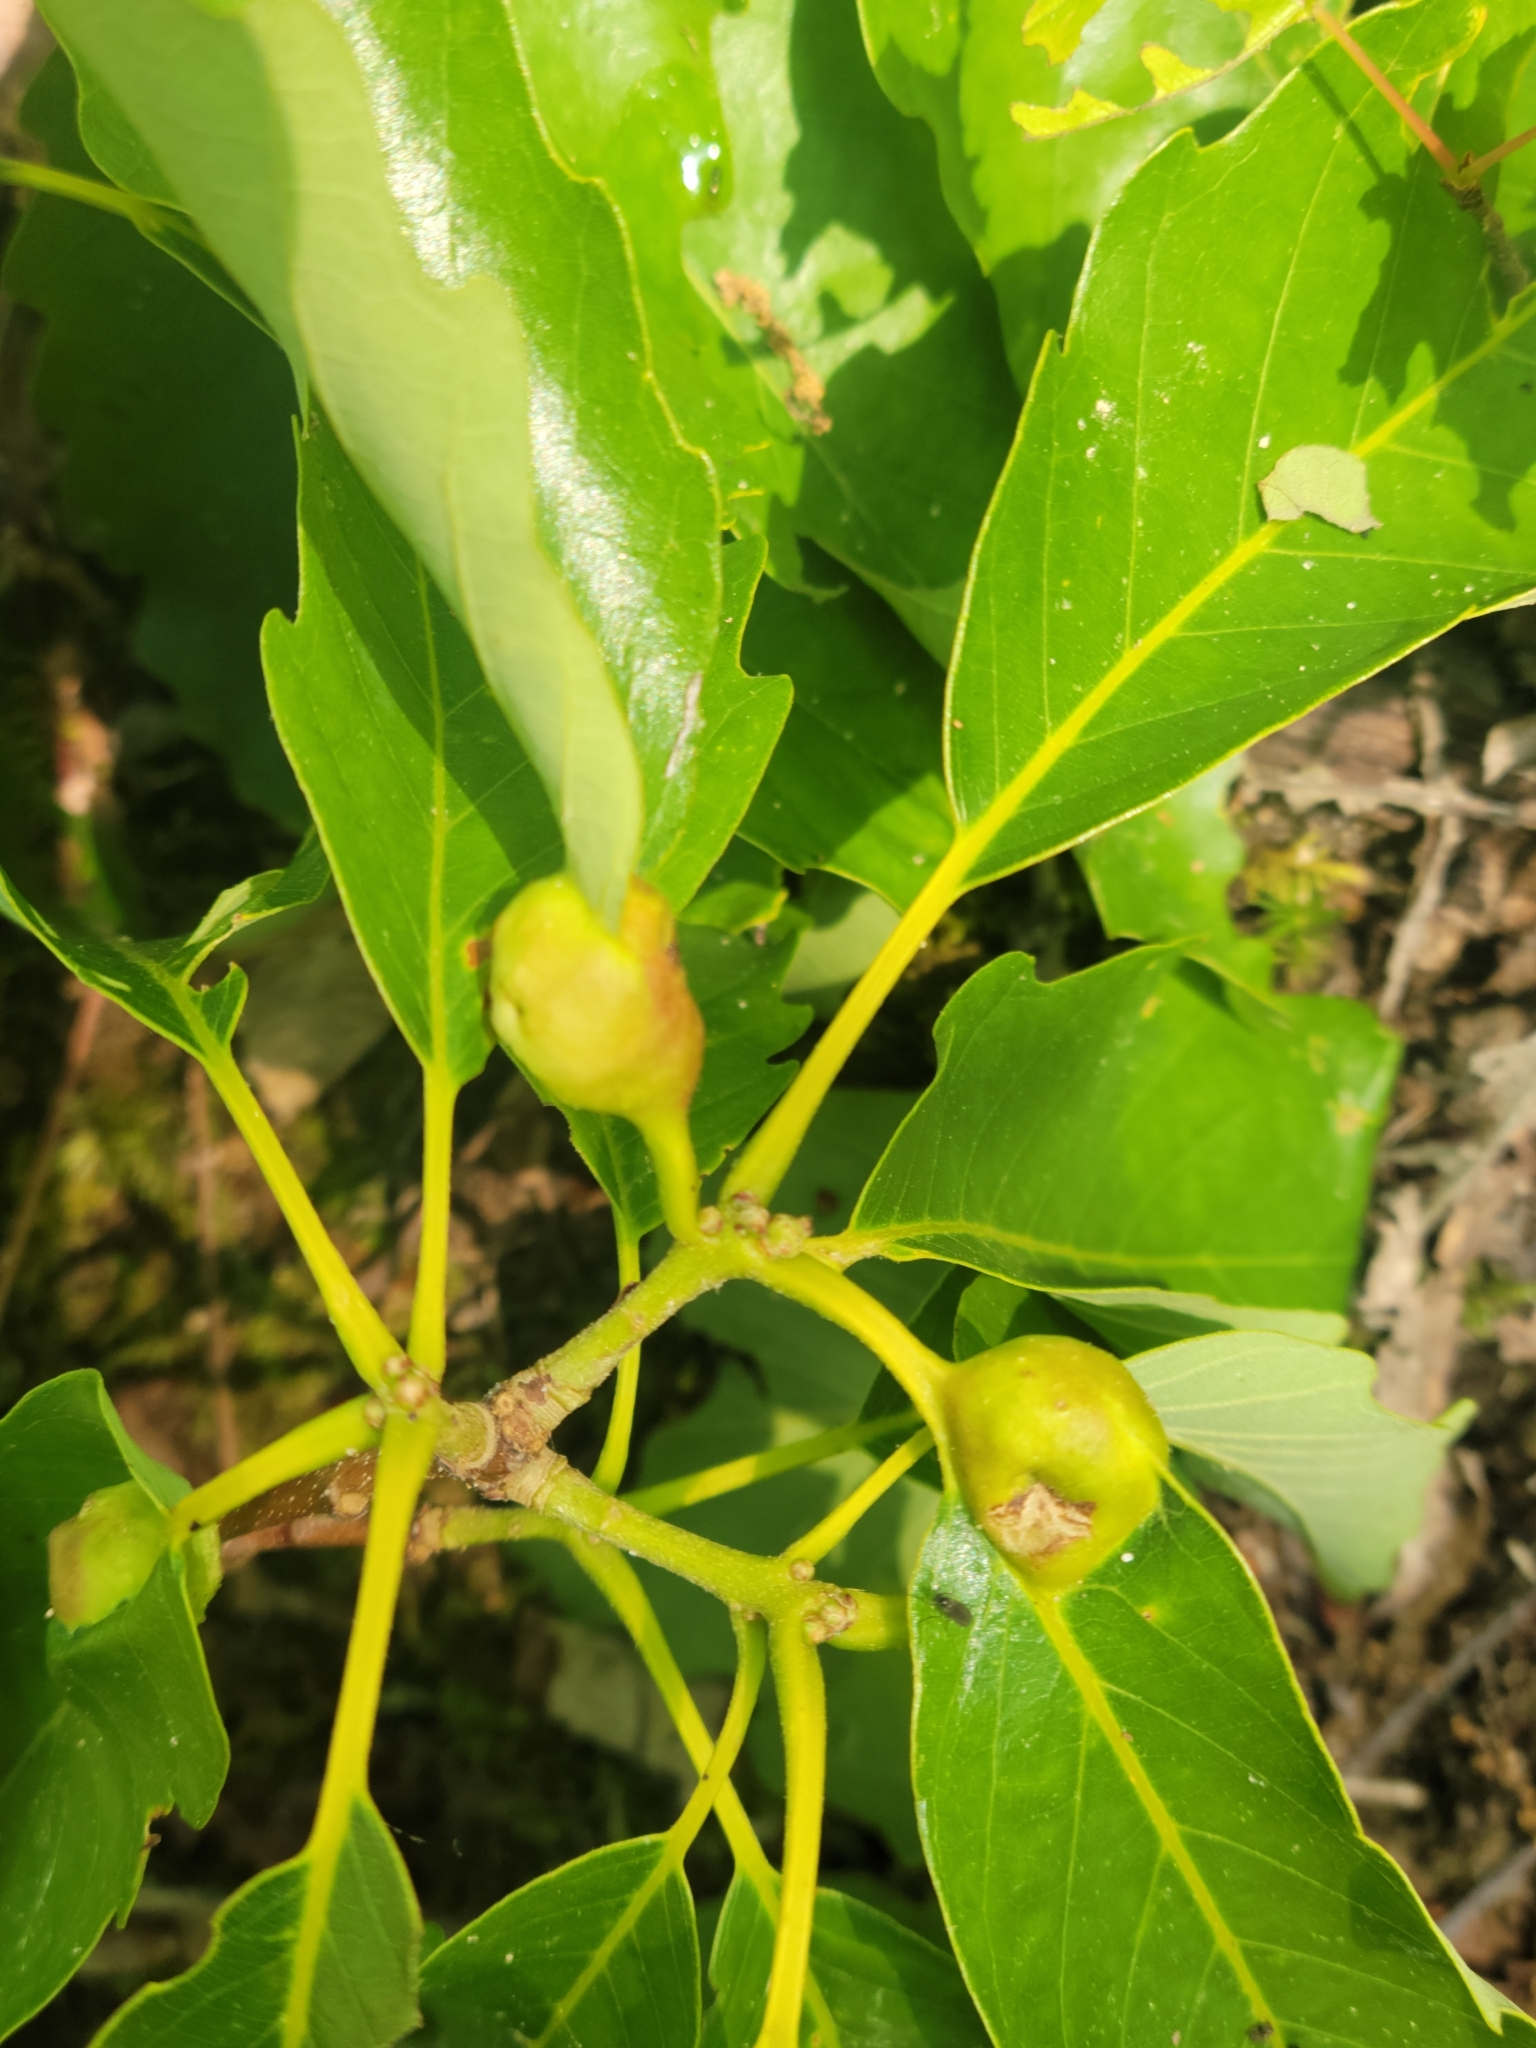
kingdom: Animalia
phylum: Arthropoda
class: Insecta
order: Hymenoptera
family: Cynipidae
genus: Andricus
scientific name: Andricus
